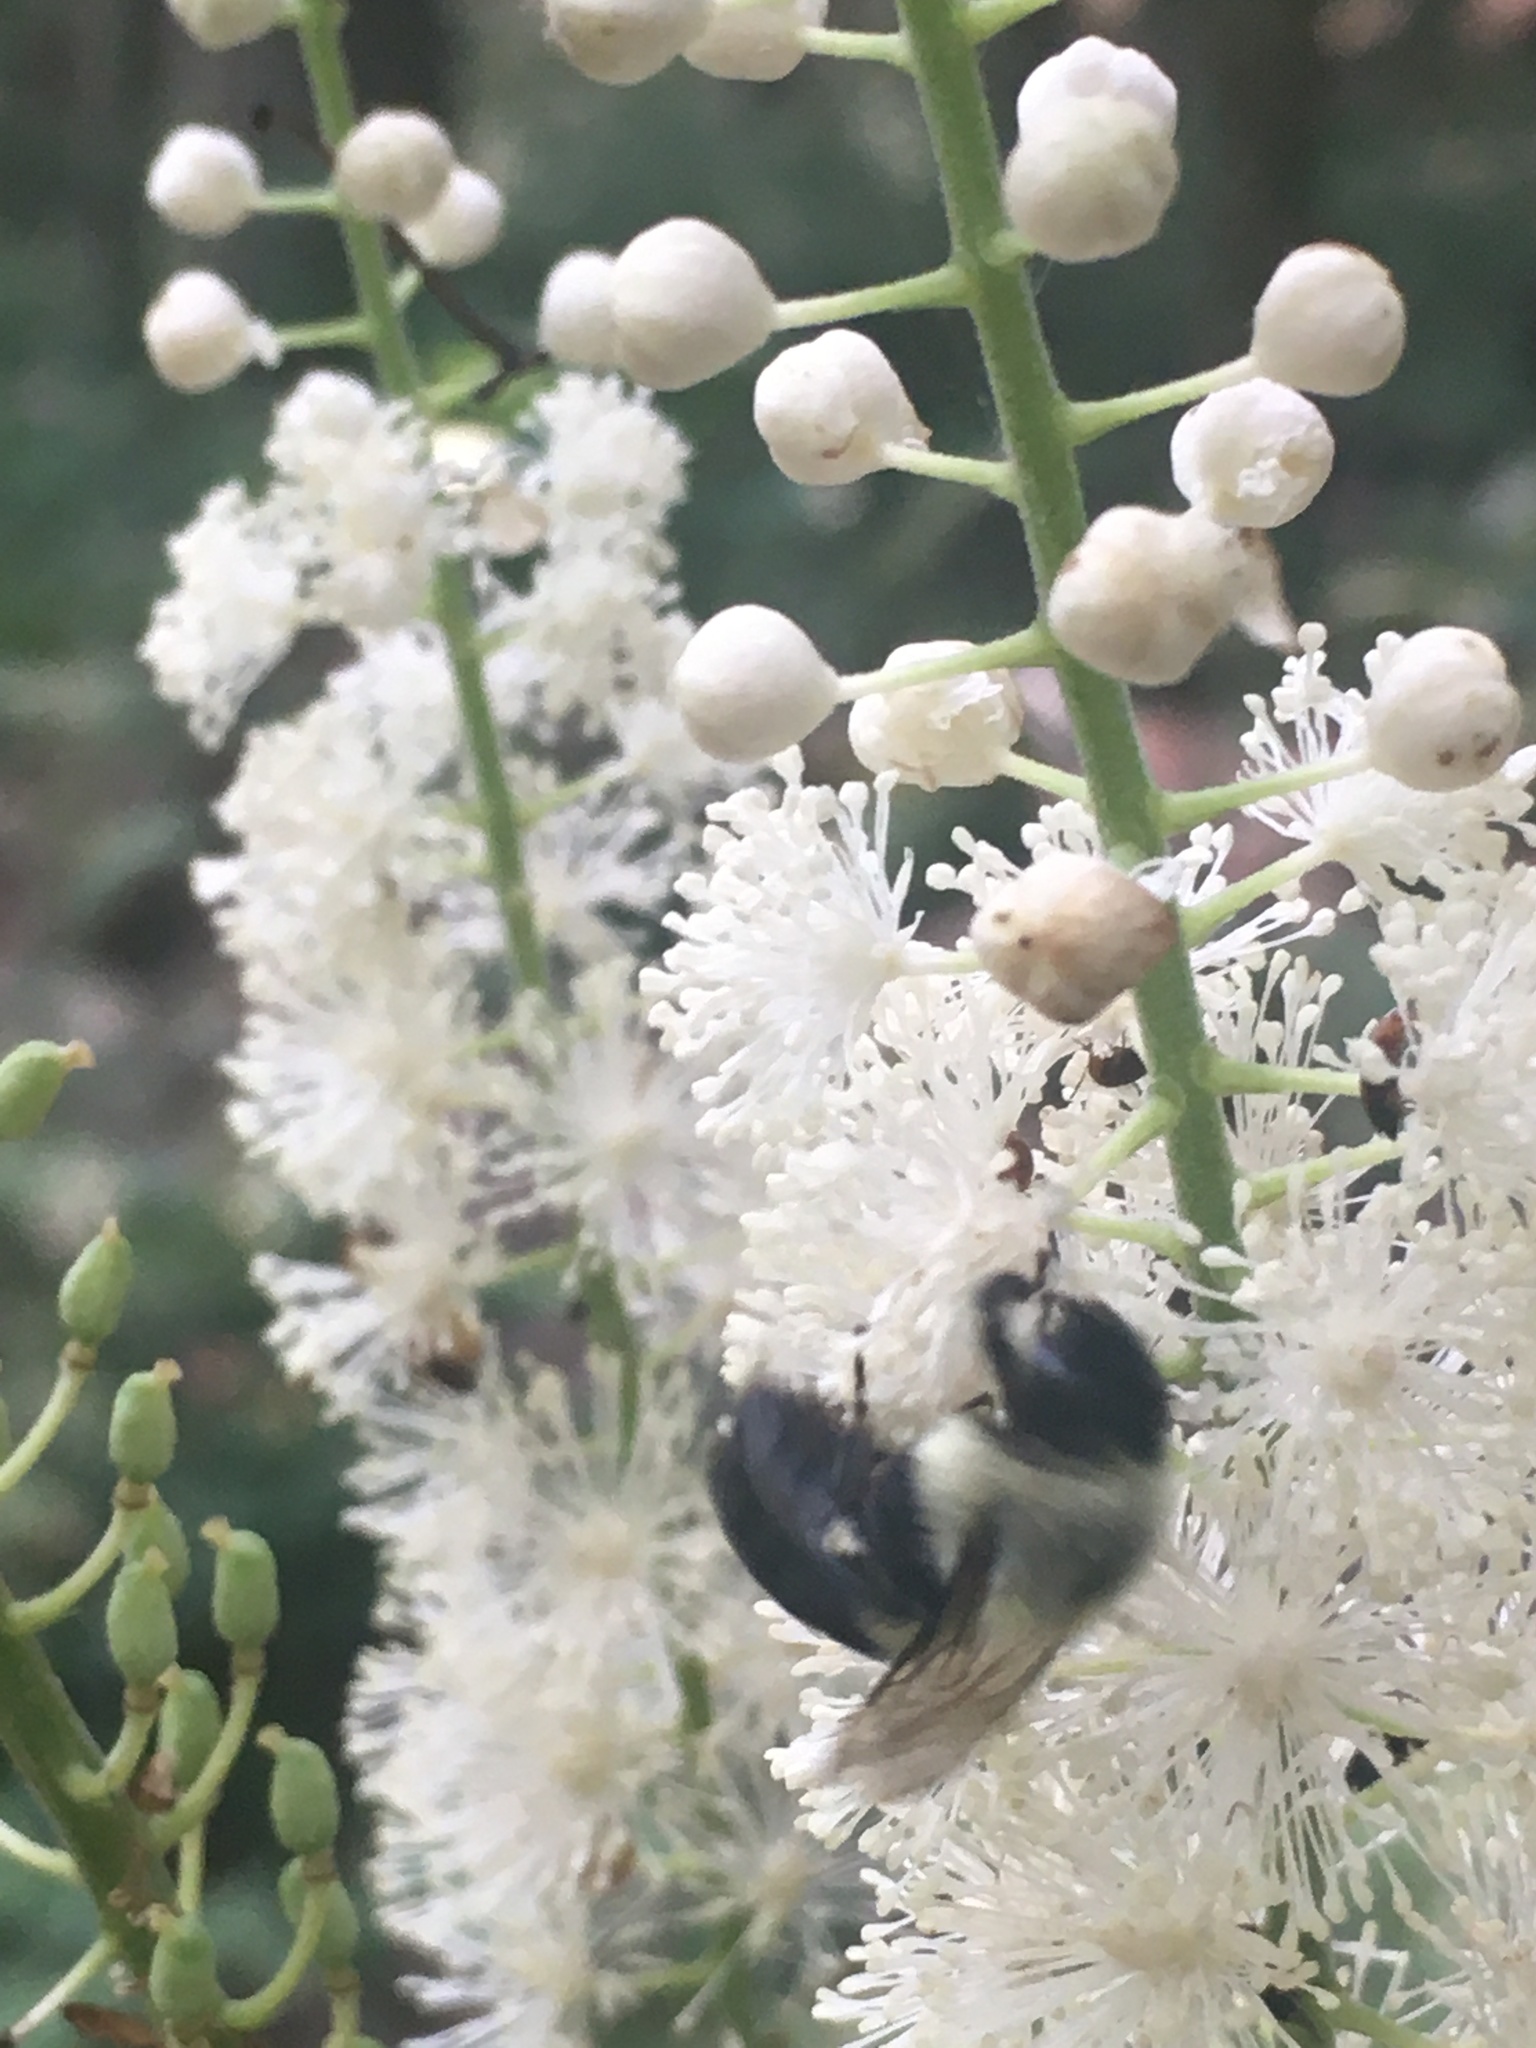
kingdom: Animalia
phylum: Arthropoda
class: Insecta
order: Hymenoptera
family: Apidae
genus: Bombus
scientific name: Bombus impatiens
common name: Common eastern bumble bee
